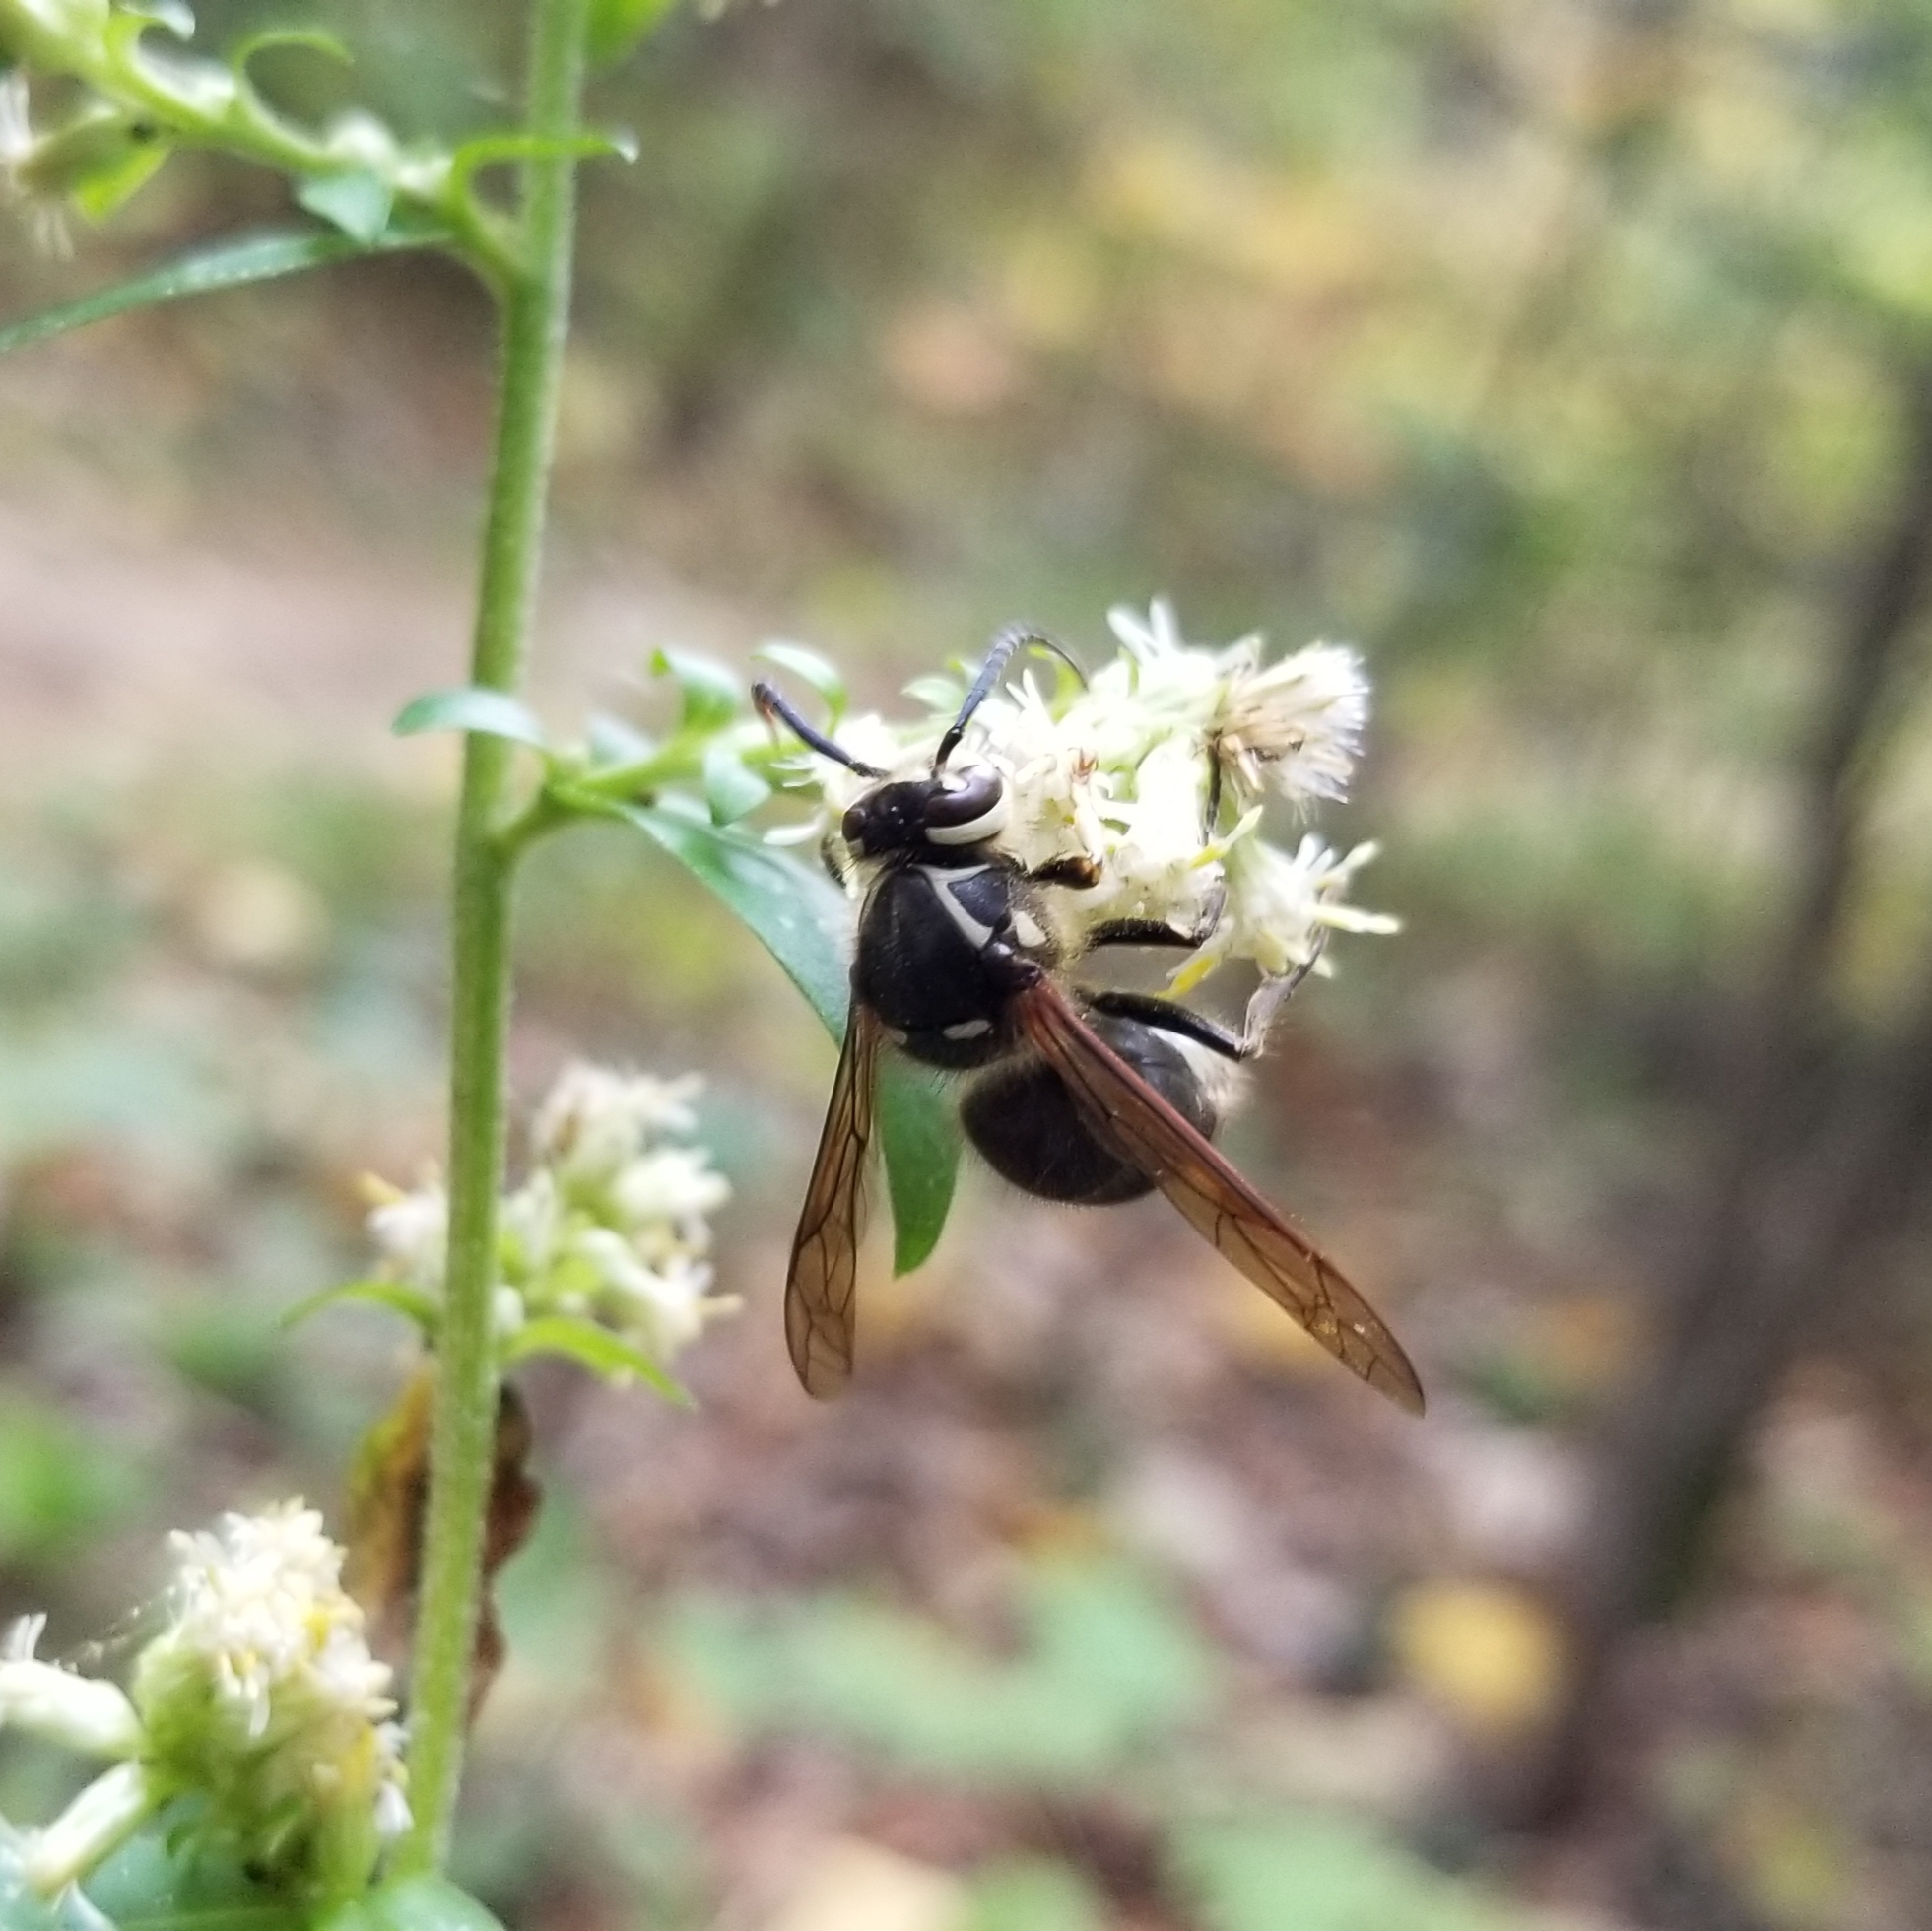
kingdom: Animalia
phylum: Arthropoda
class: Insecta
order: Hymenoptera
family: Vespidae
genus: Dolichovespula
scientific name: Dolichovespula maculata
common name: Bald-faced hornet
